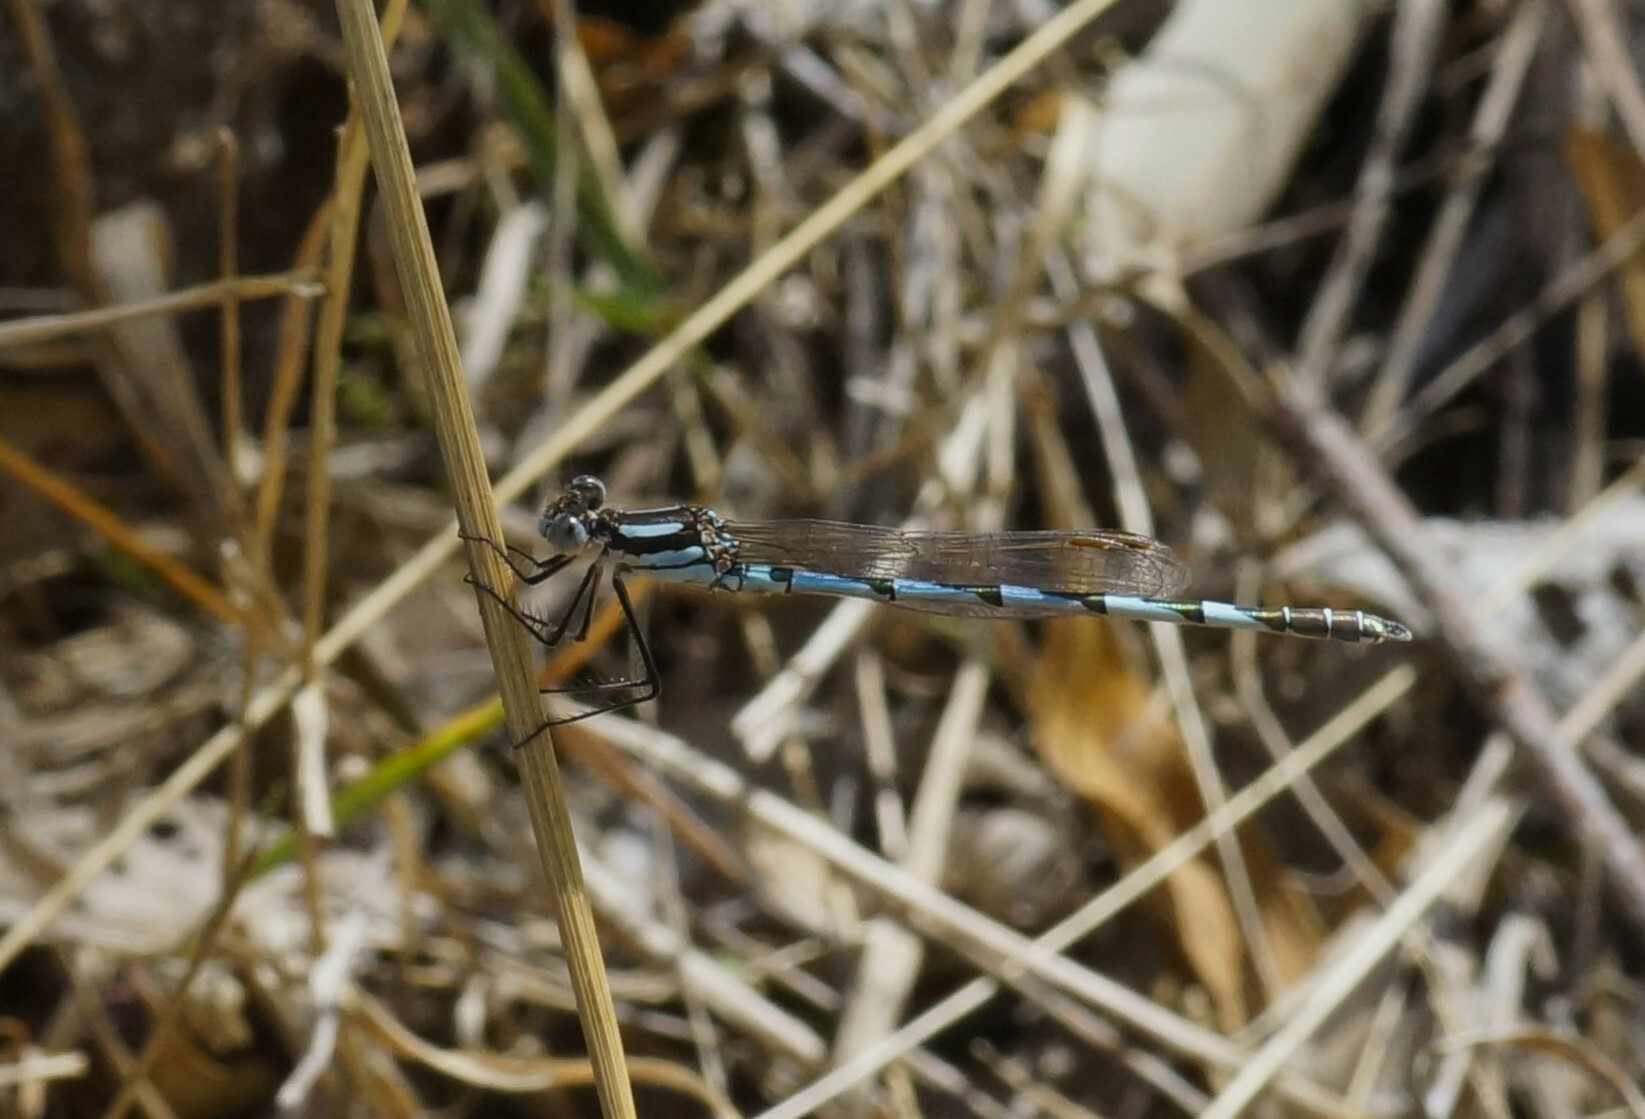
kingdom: Animalia
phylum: Arthropoda
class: Insecta
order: Odonata
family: Lestidae
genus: Austrolestes
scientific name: Austrolestes annulosus
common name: Blue ringtail
